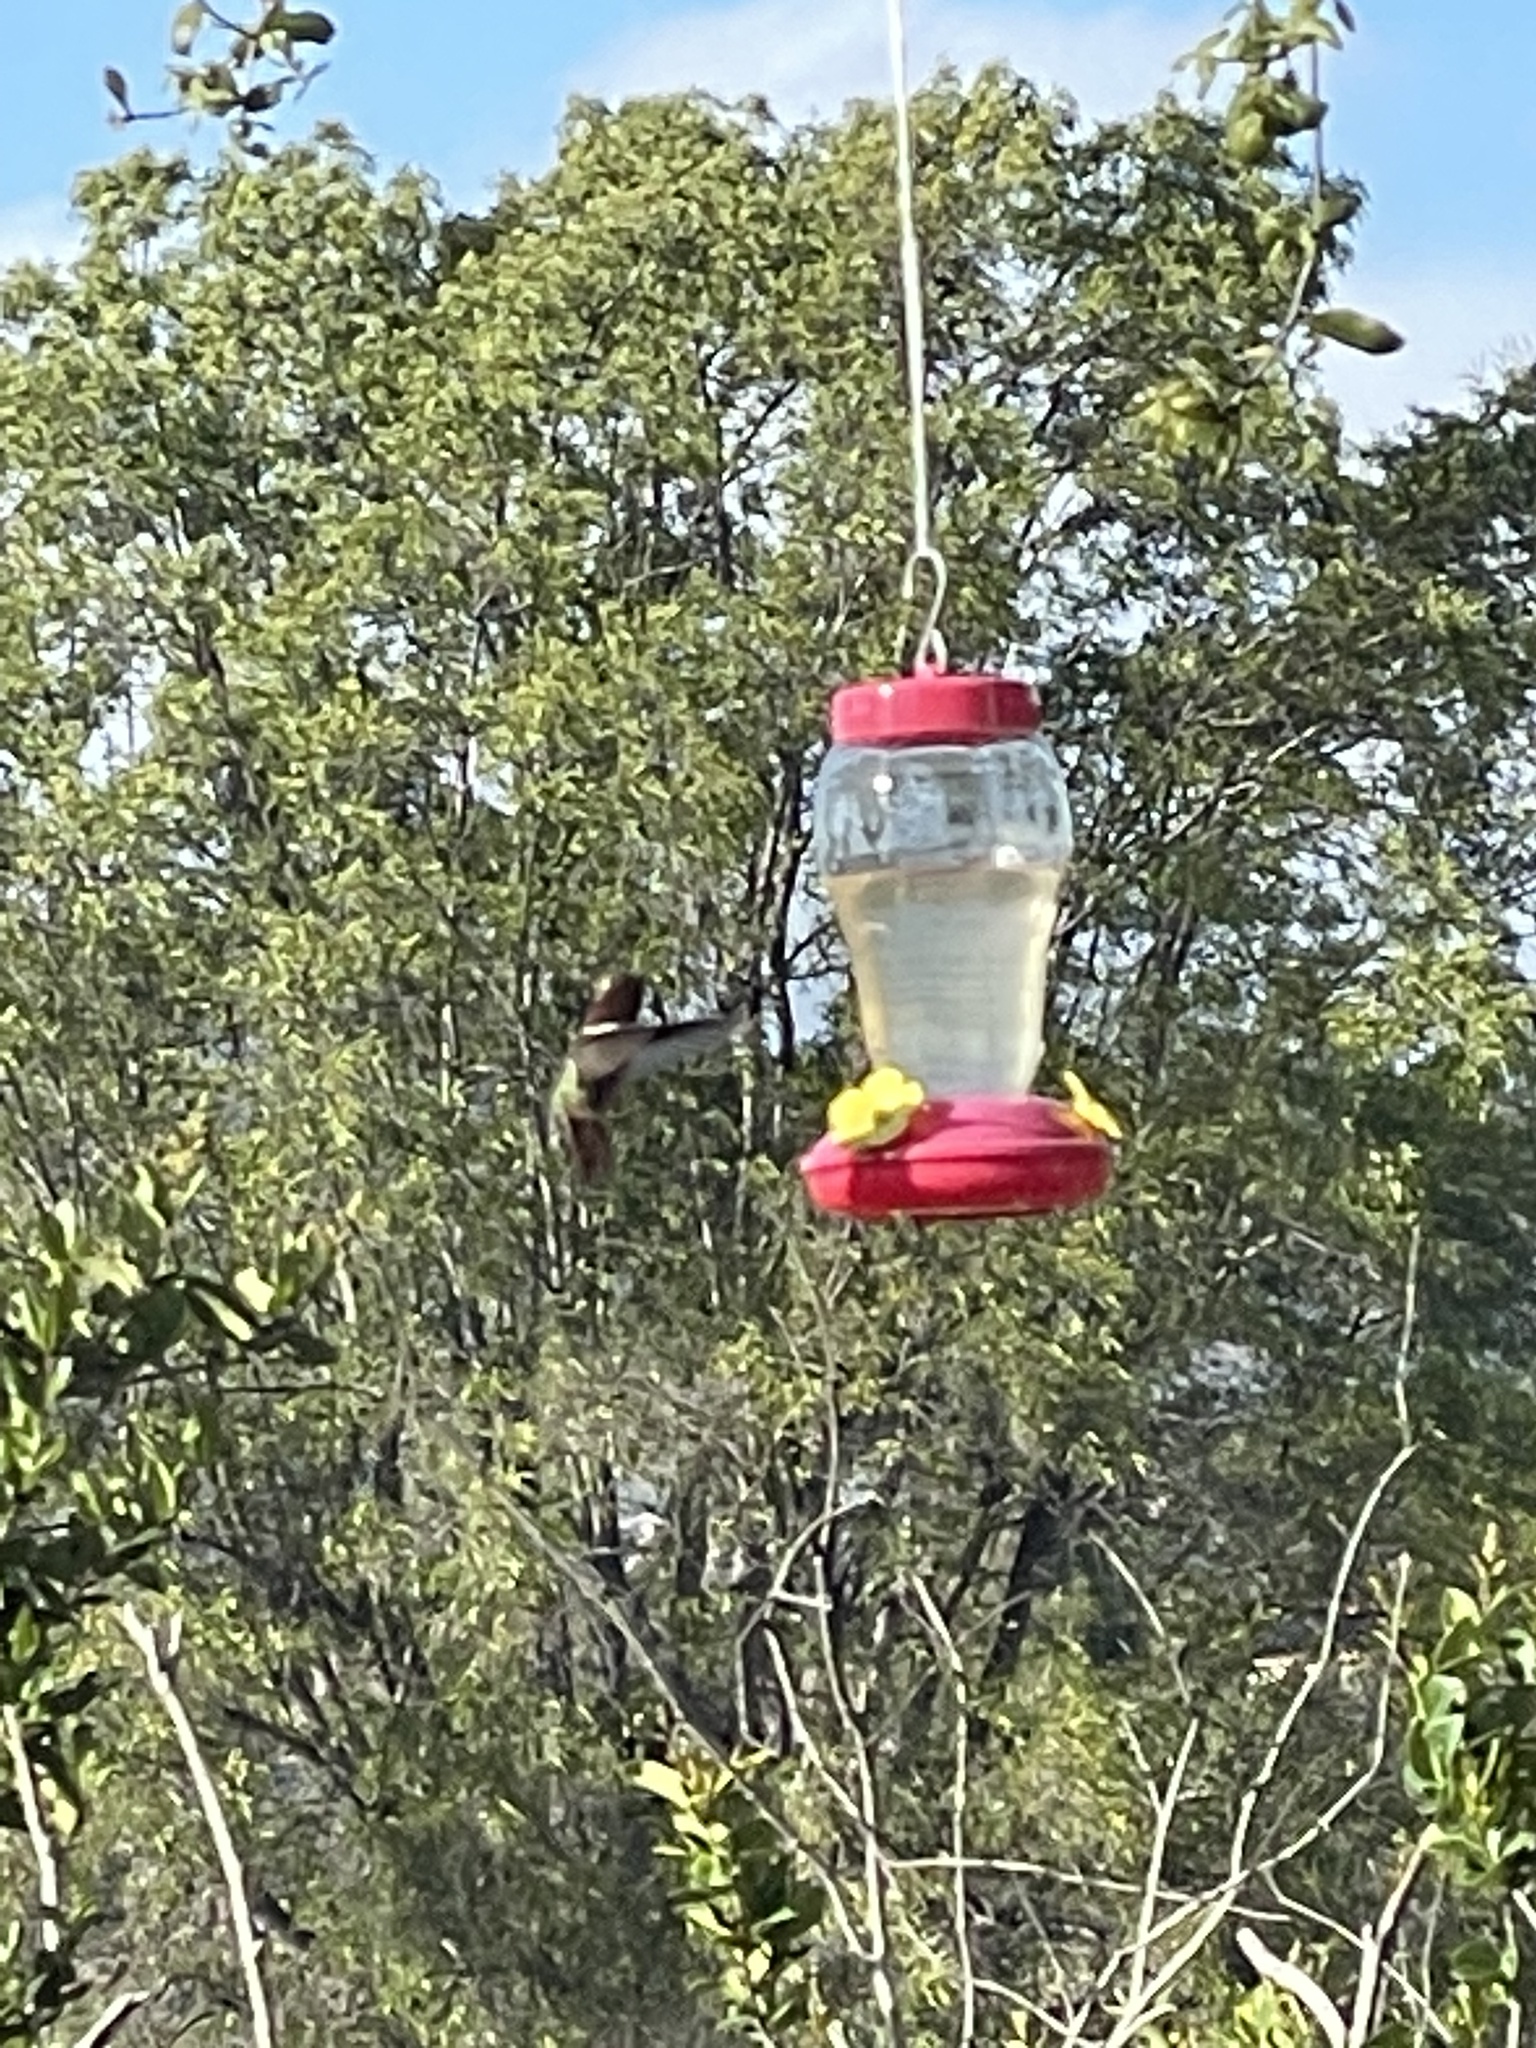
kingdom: Animalia
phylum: Chordata
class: Aves
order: Apodiformes
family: Trochilidae
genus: Calypte
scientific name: Calypte anna
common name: Anna's hummingbird
